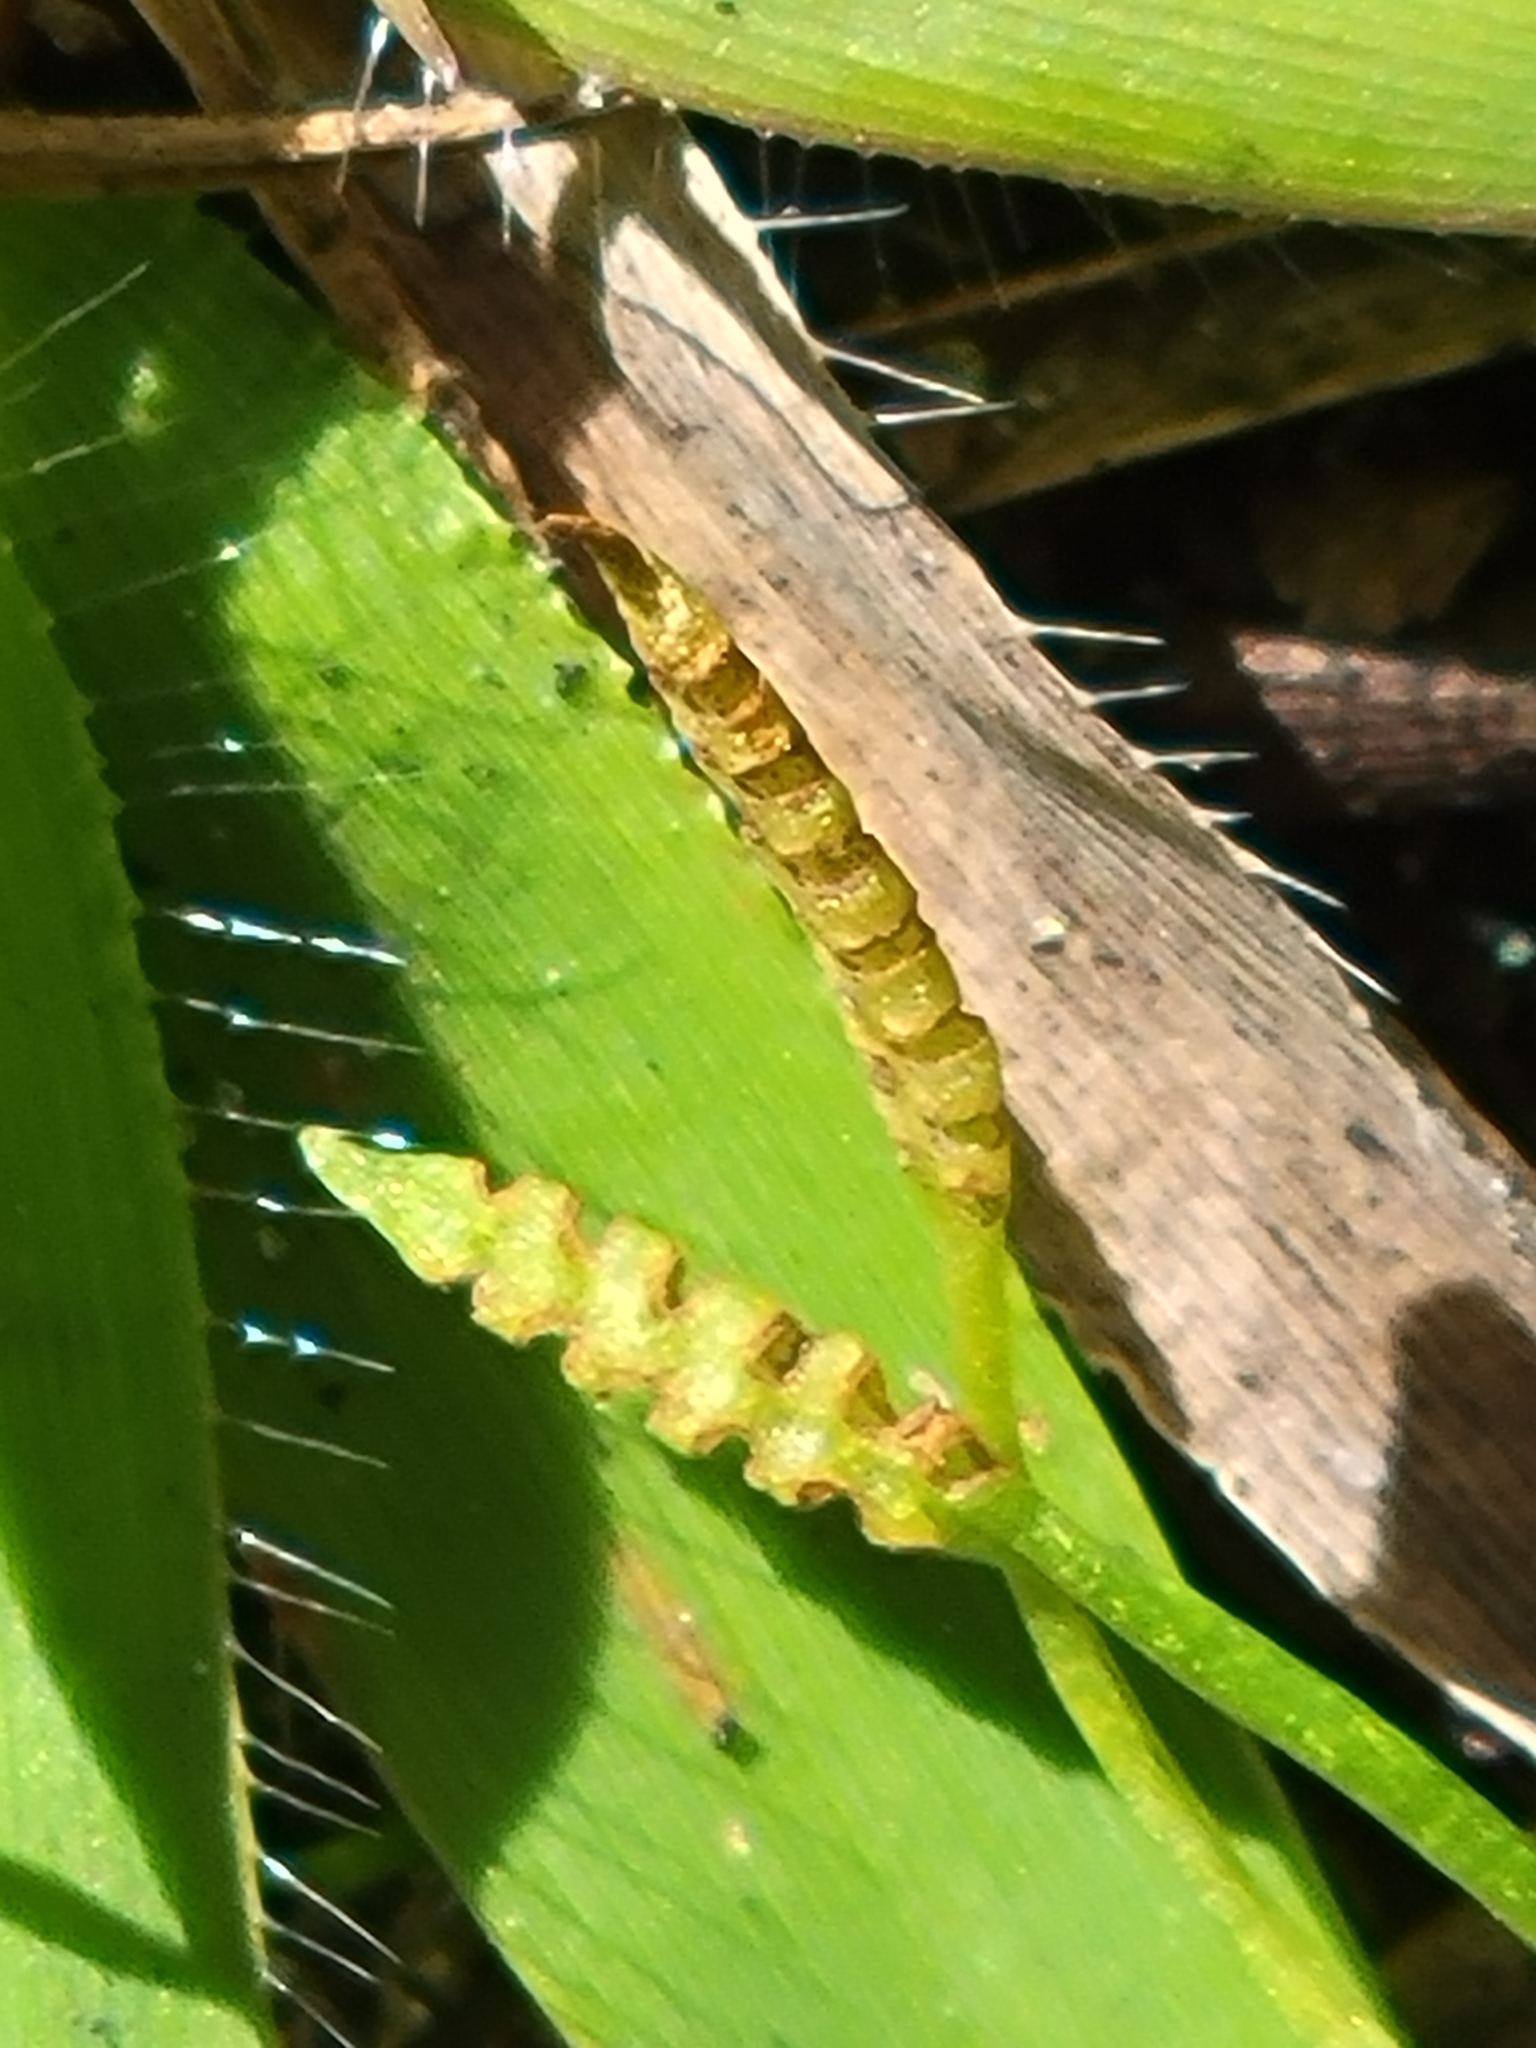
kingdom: Plantae
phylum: Tracheophyta
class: Polypodiopsida
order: Ophioglossales
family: Ophioglossaceae
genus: Ophioglossum
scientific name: Ophioglossum nudicaule
